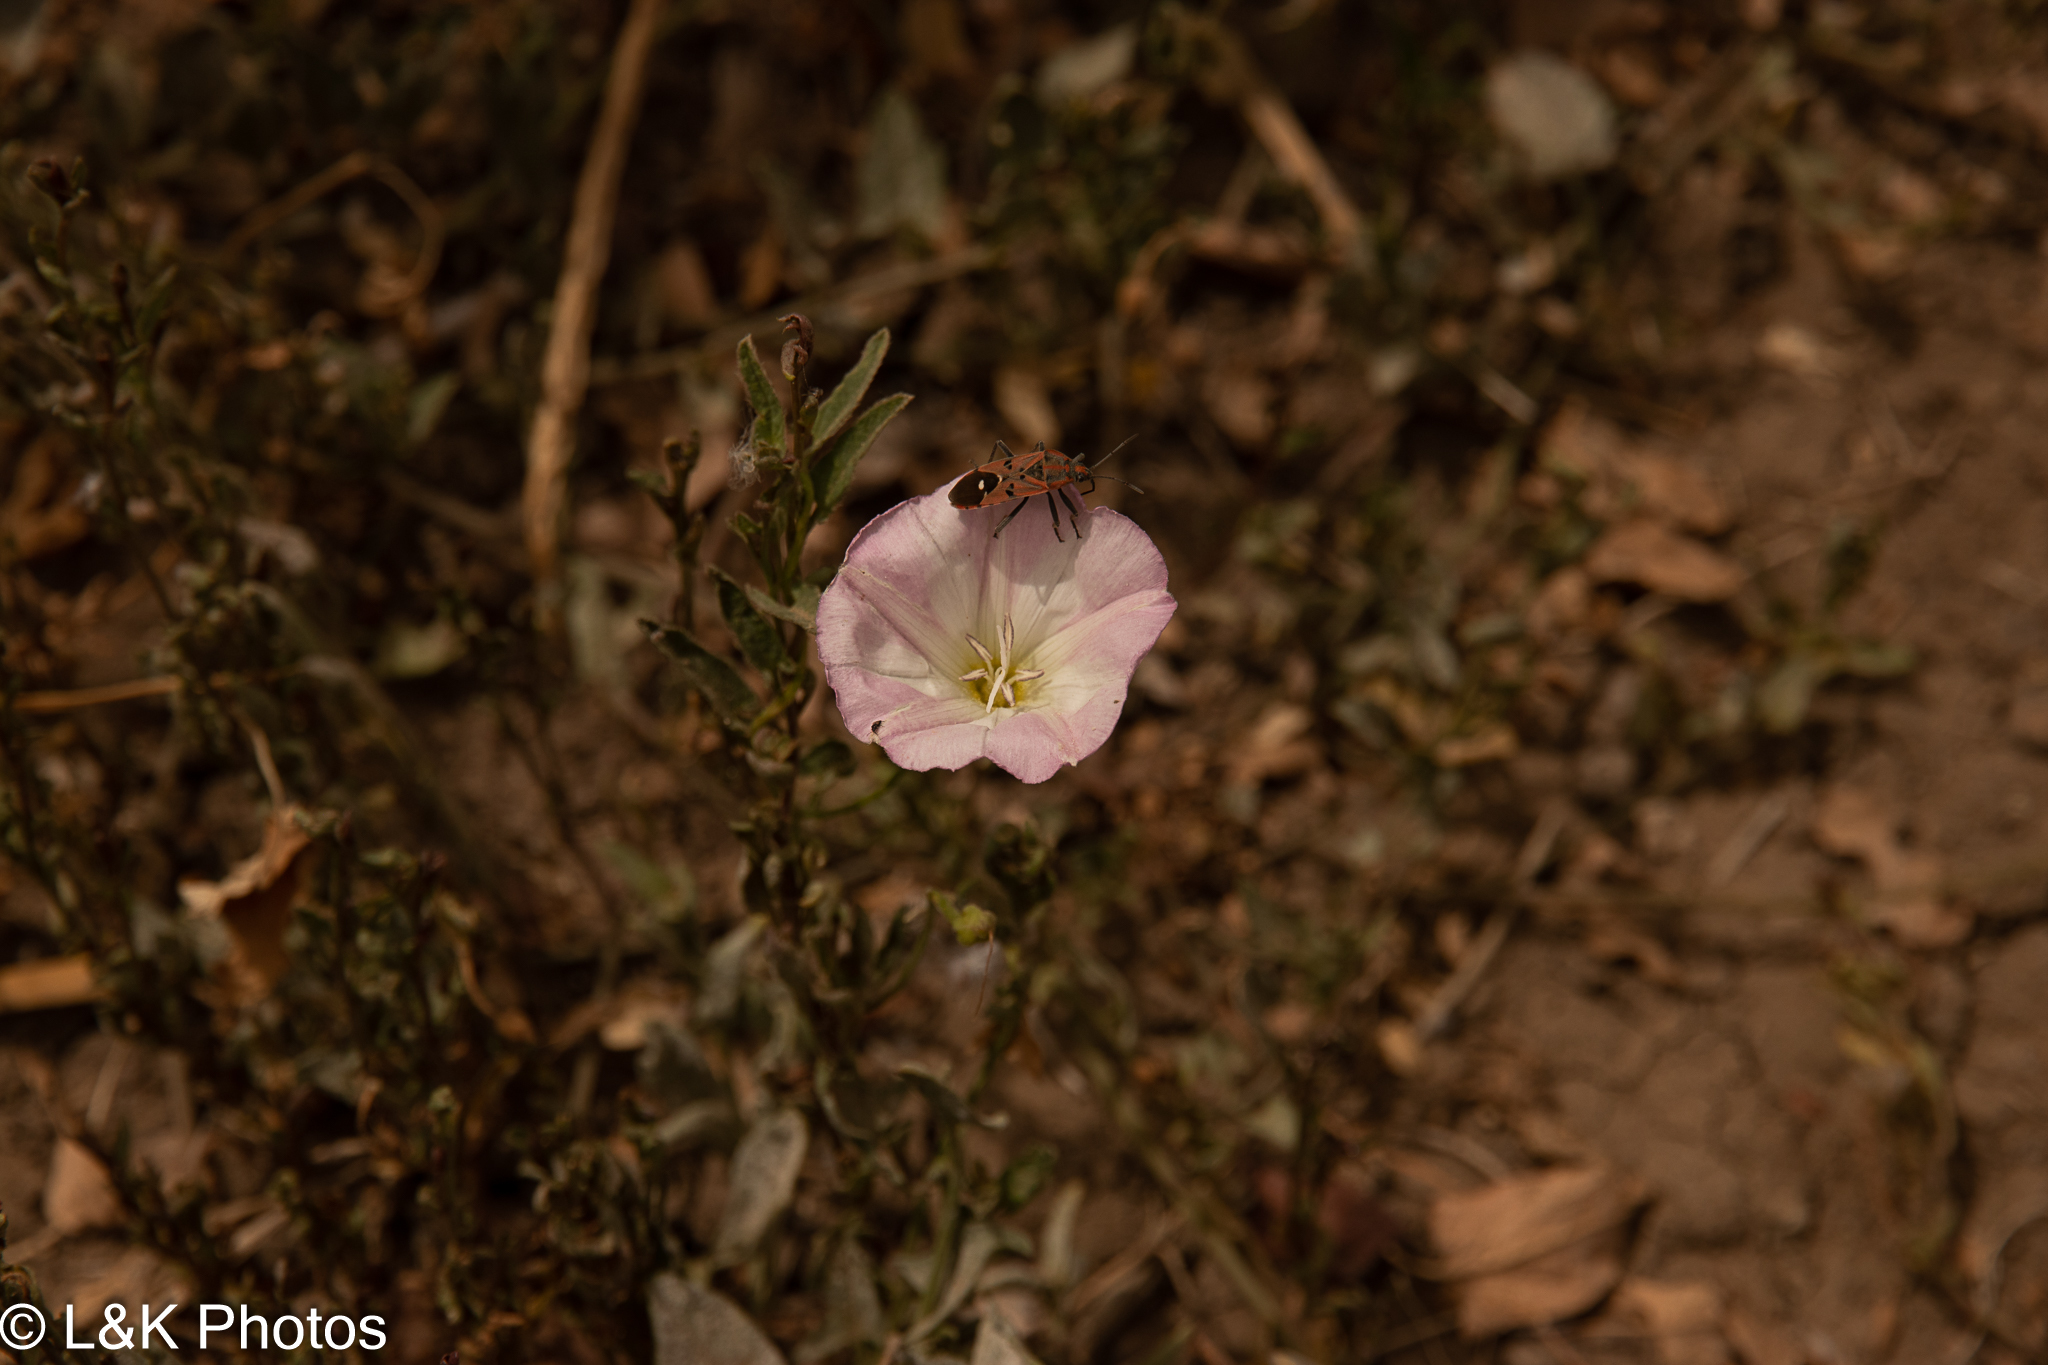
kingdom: Animalia
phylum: Arthropoda
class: Insecta
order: Hemiptera
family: Lygaeidae
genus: Spilostethus
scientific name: Spilostethus pandurus
